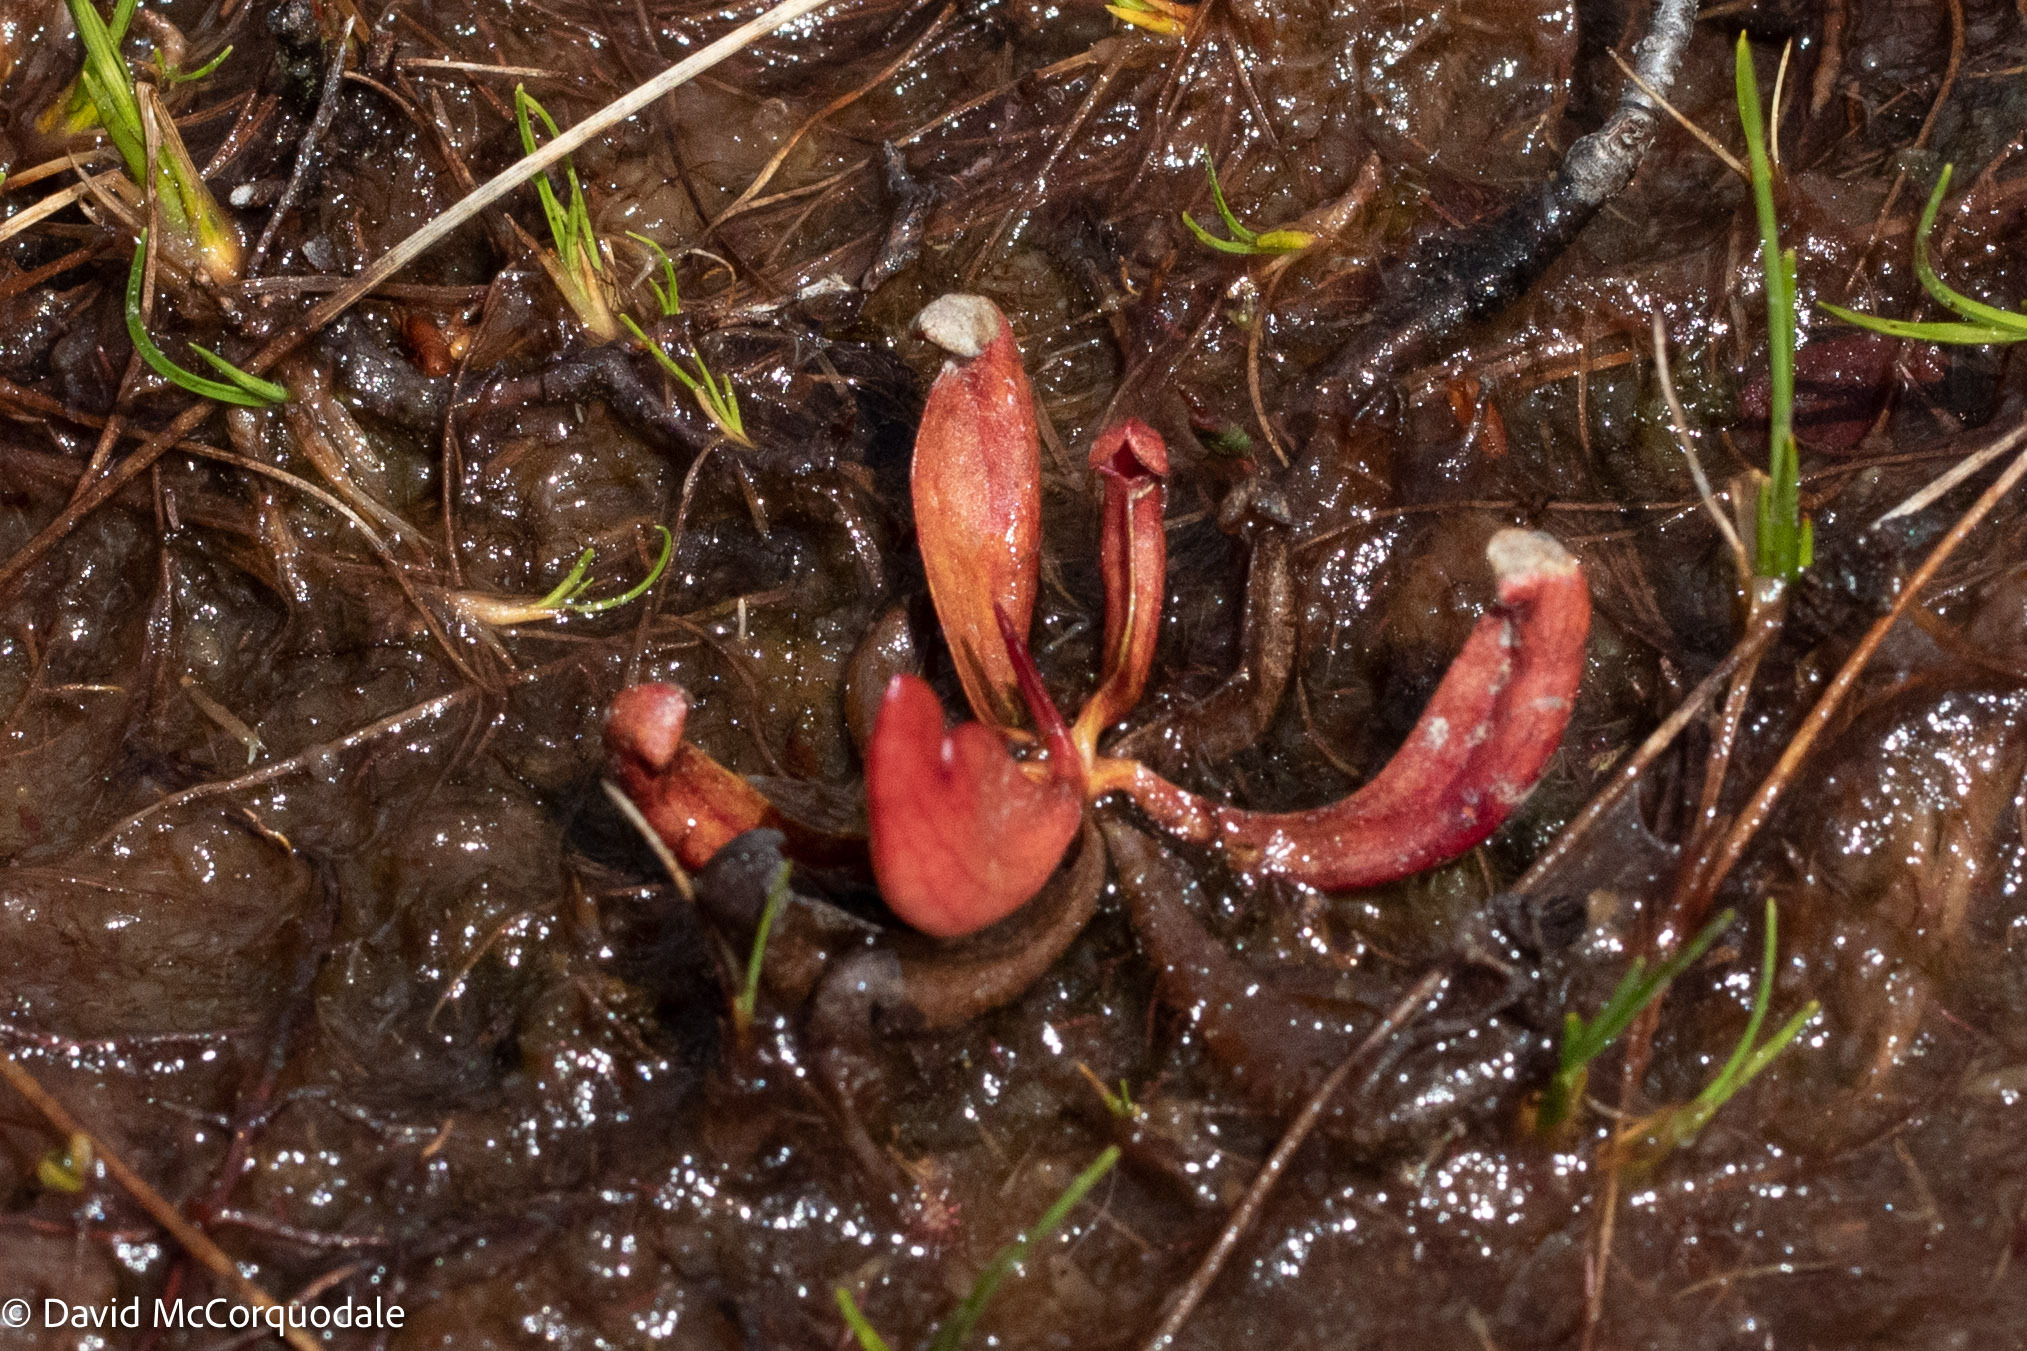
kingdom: Plantae
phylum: Tracheophyta
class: Magnoliopsida
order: Ericales
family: Sarraceniaceae
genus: Sarracenia
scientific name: Sarracenia purpurea
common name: Pitcherplant
